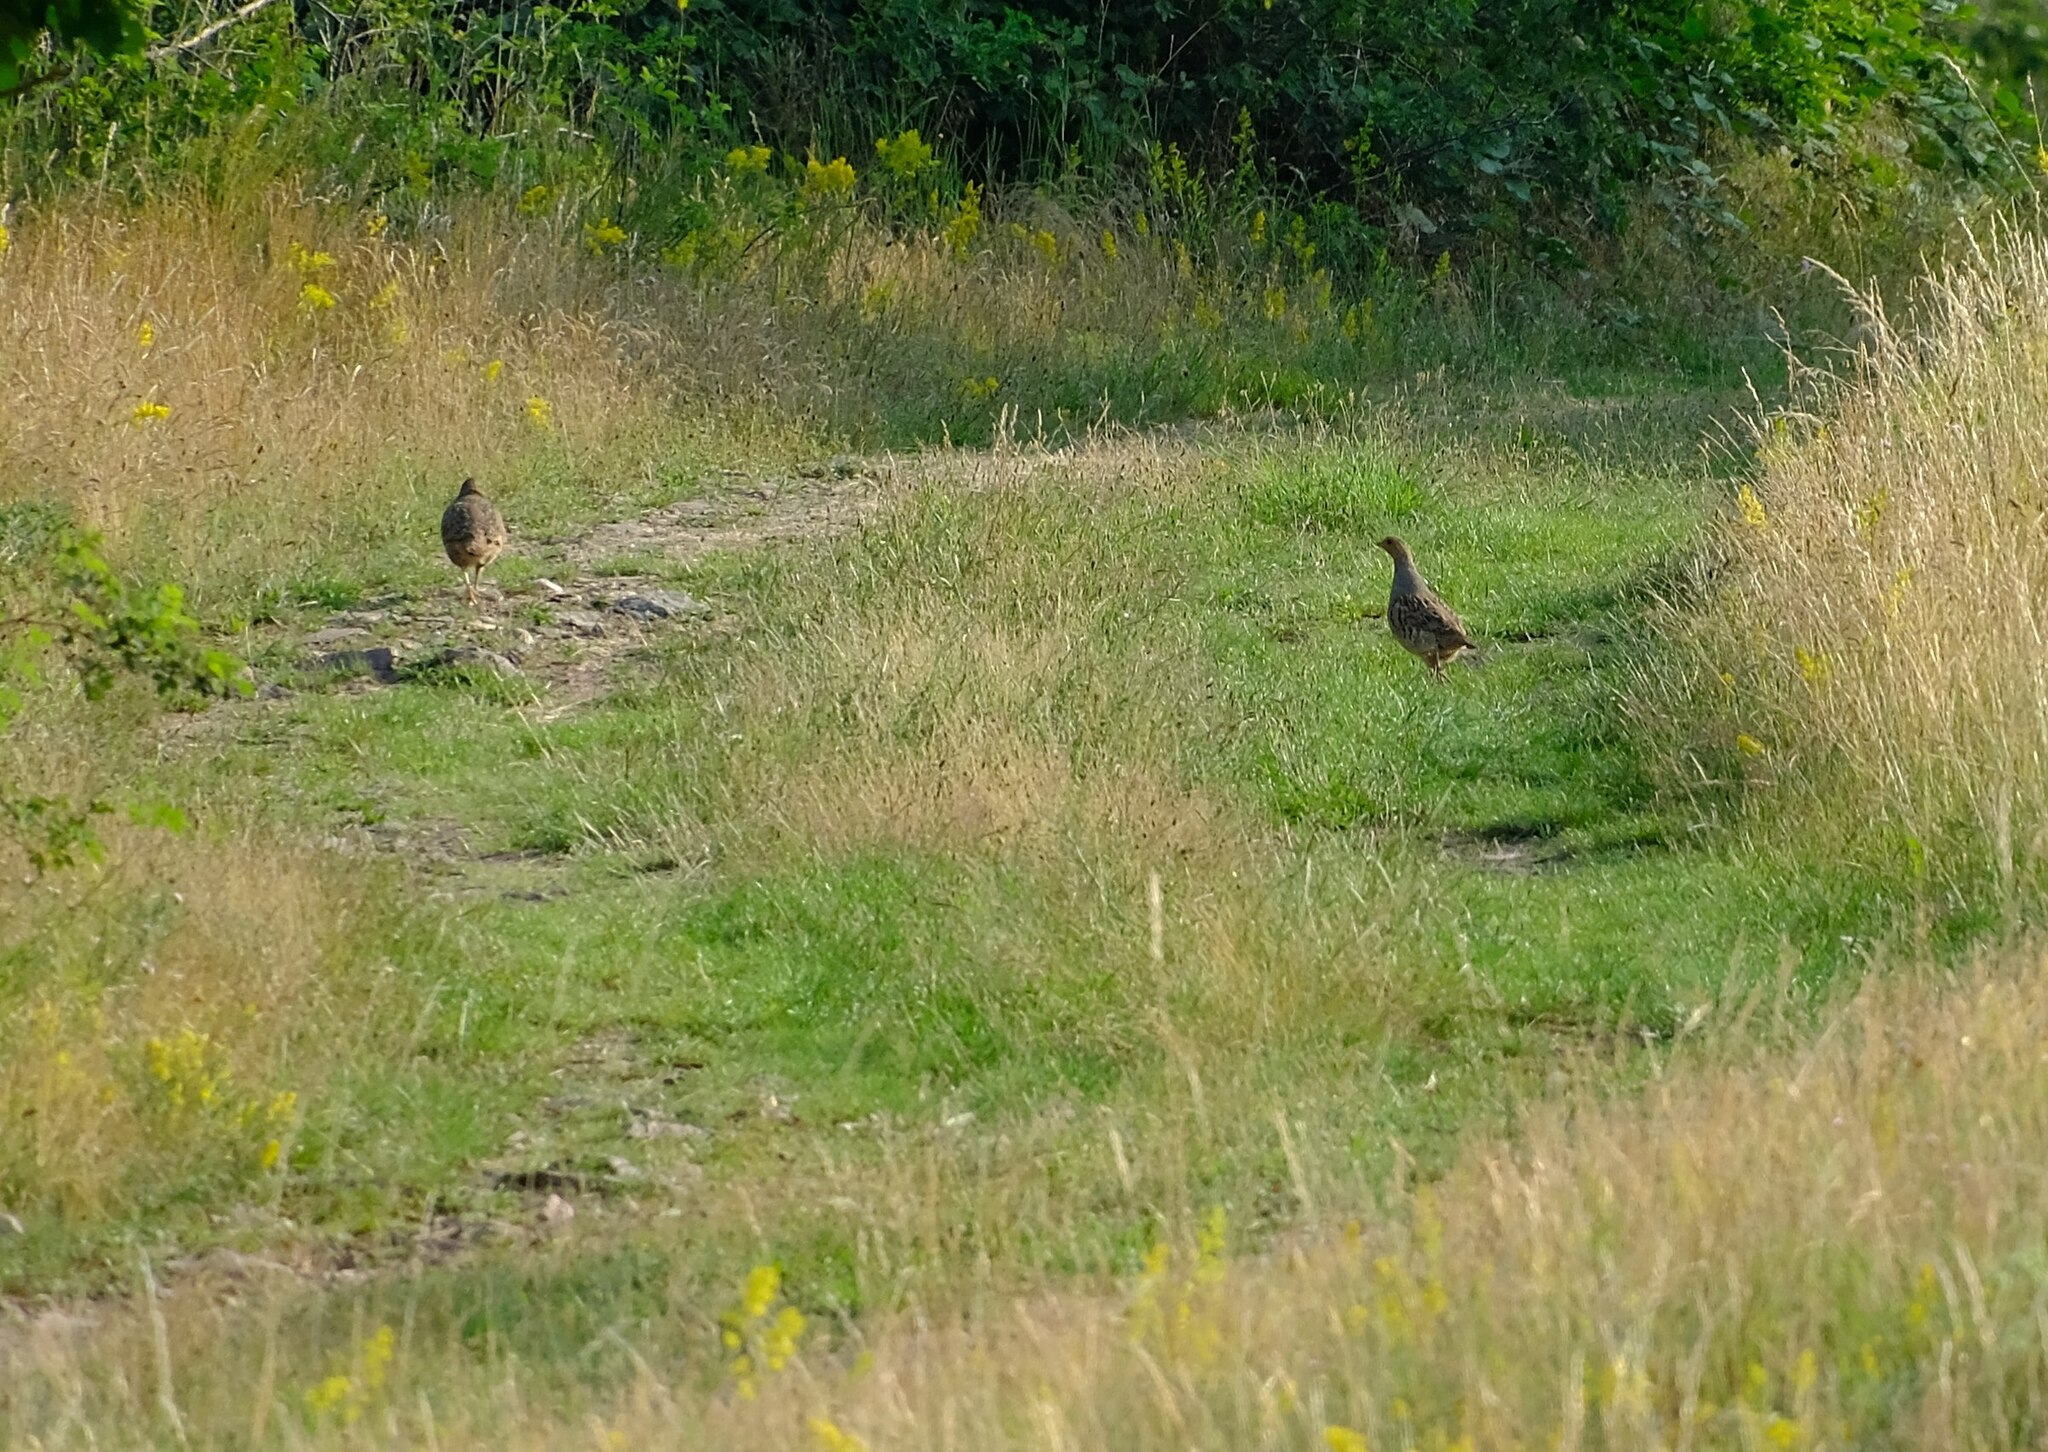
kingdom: Animalia
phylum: Chordata
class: Aves
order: Galliformes
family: Phasianidae
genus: Perdix
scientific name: Perdix perdix
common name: Grey partridge
